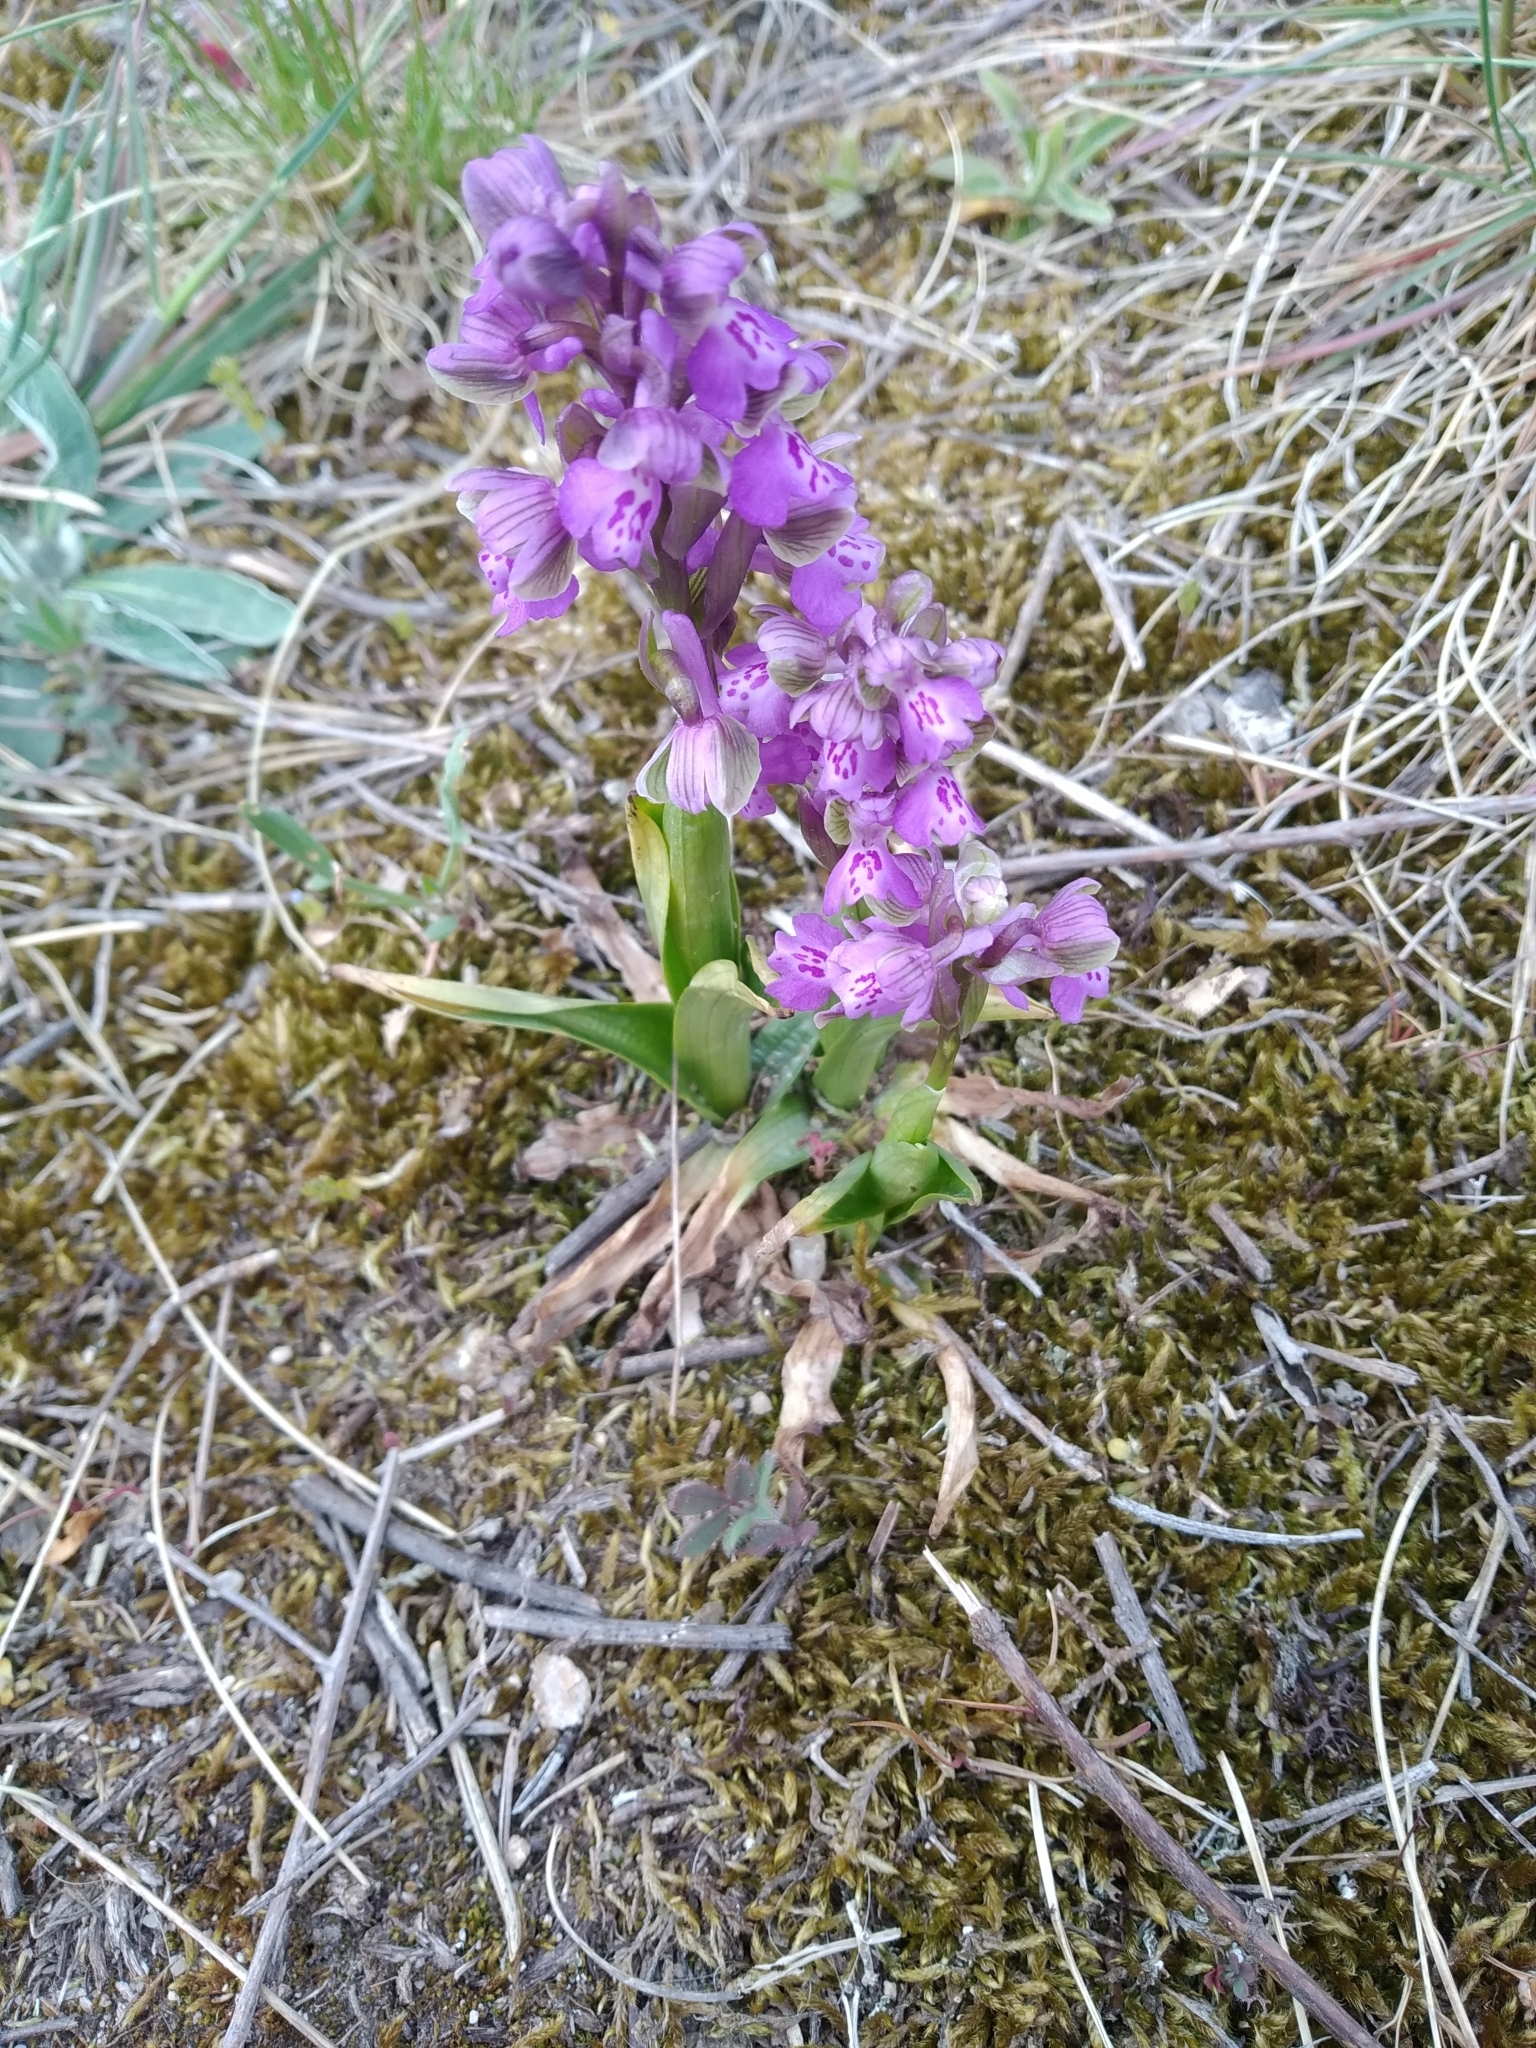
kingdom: Plantae
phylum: Tracheophyta
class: Liliopsida
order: Asparagales
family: Orchidaceae
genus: Anacamptis
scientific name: Anacamptis morio
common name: Green-winged orchid
